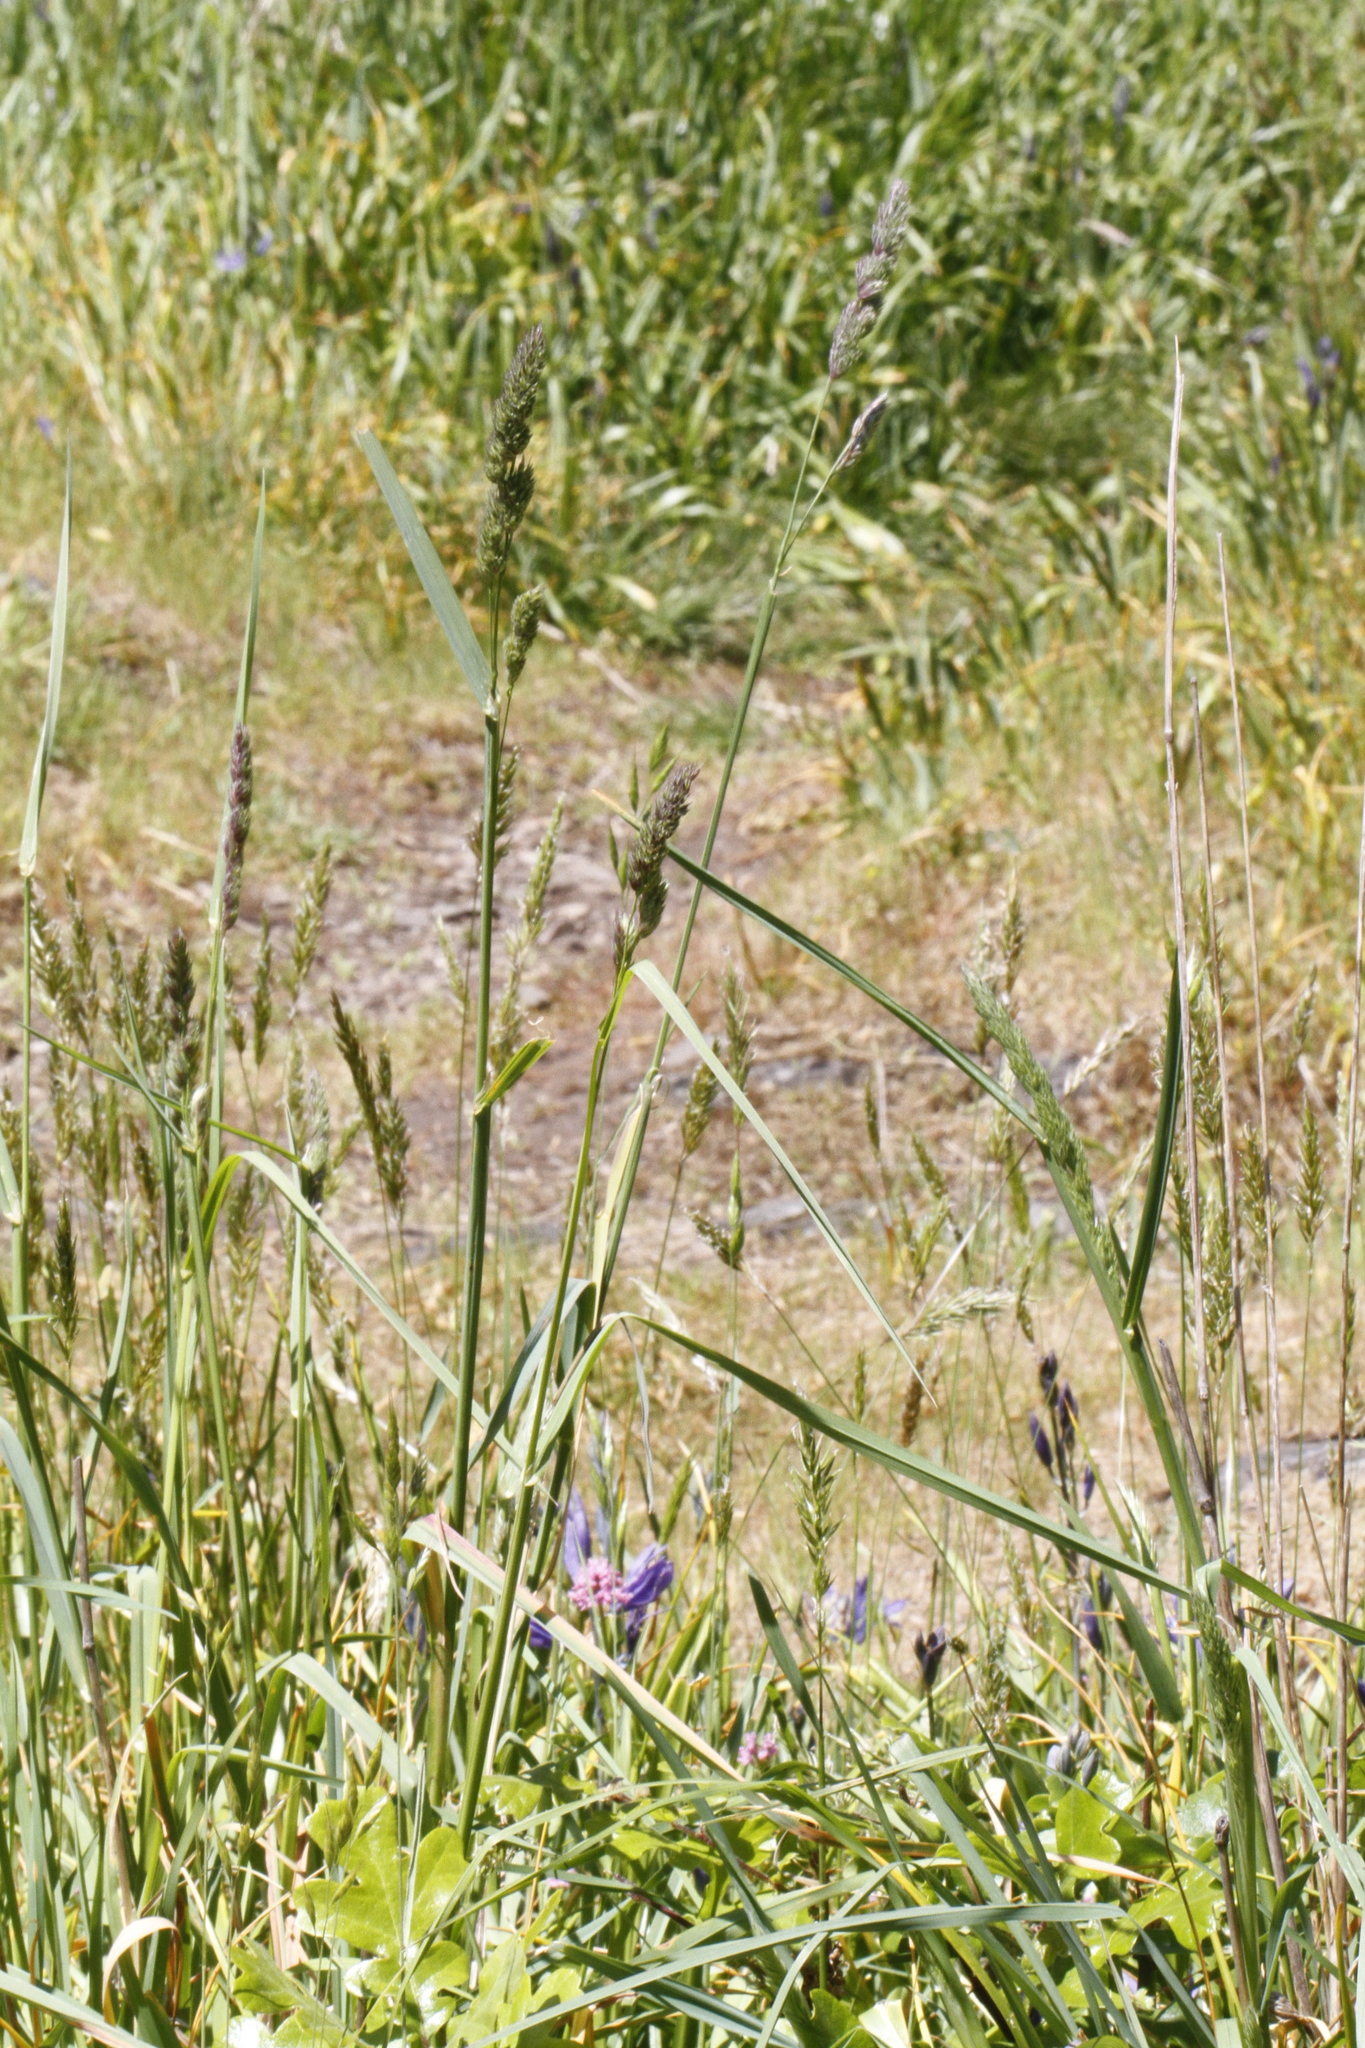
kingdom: Plantae
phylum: Tracheophyta
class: Liliopsida
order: Poales
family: Poaceae
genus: Dactylis
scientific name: Dactylis glomerata
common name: Orchardgrass
